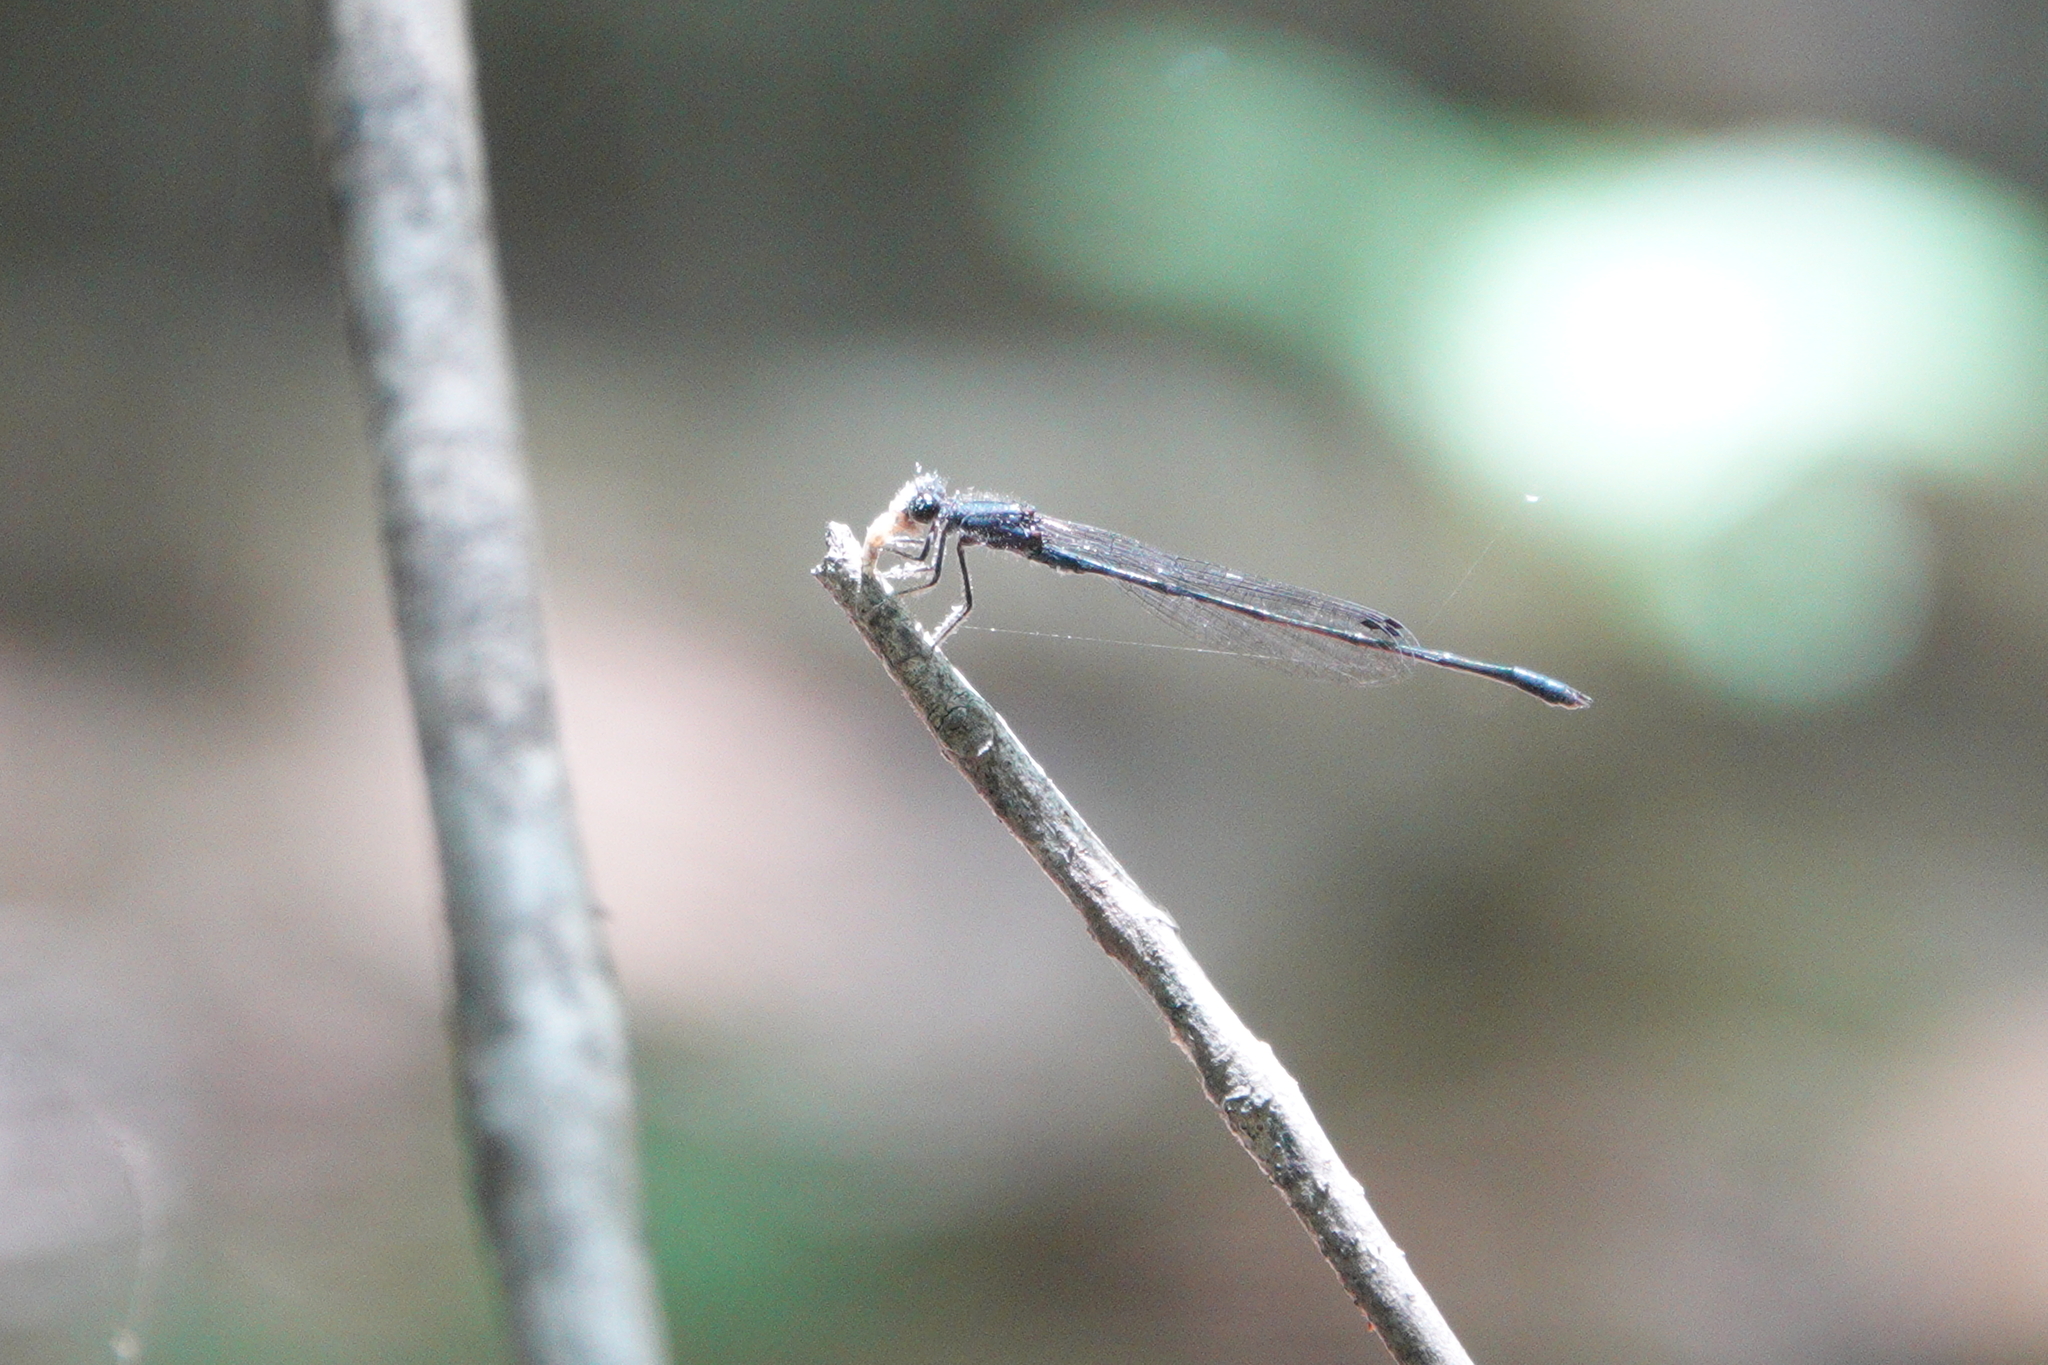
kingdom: Animalia
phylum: Arthropoda
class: Insecta
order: Odonata
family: Coenagrionidae
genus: Enallagma
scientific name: Enallagma cardenium
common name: Purple bluet
